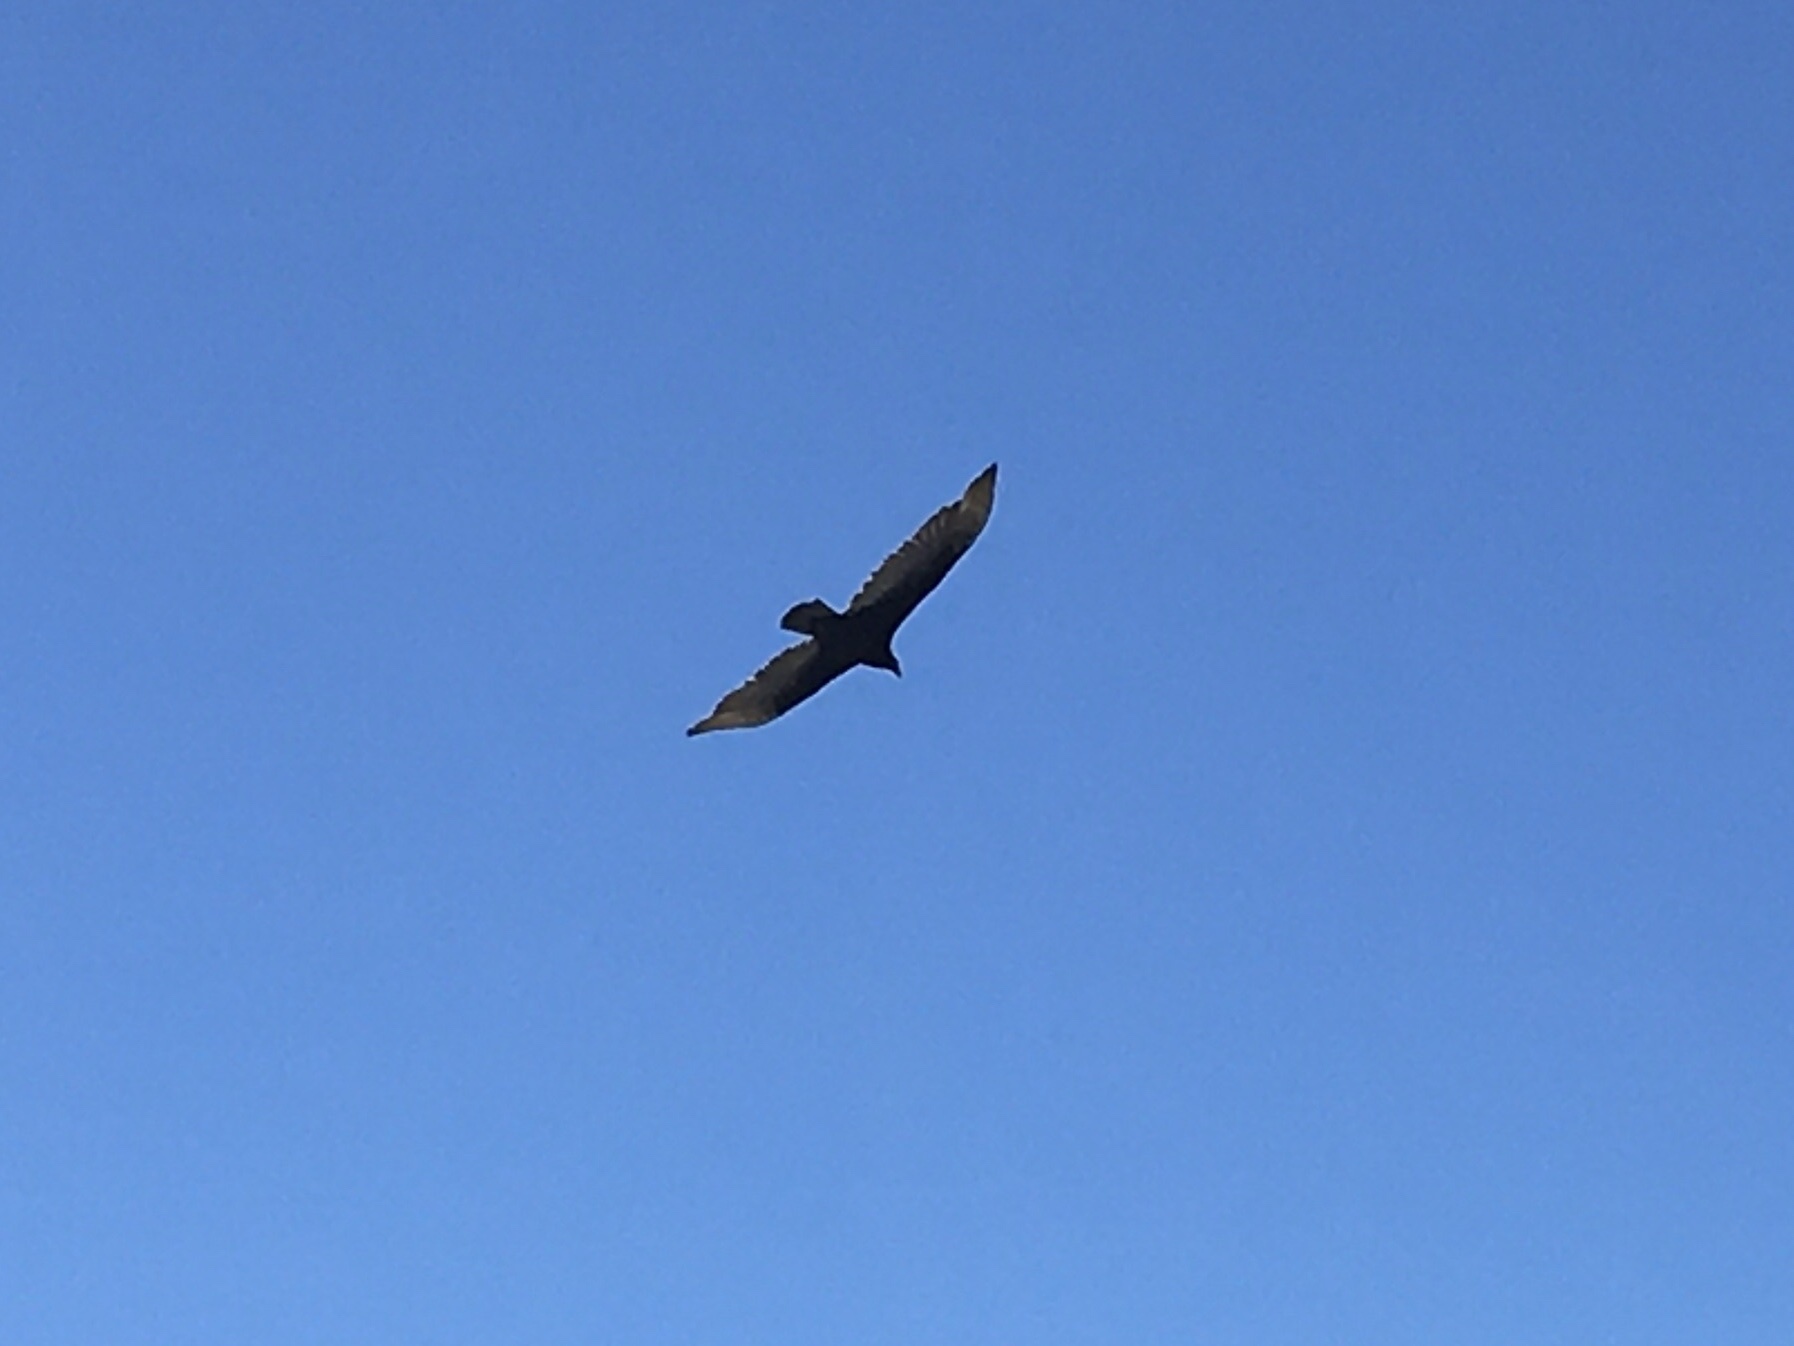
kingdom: Animalia
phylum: Chordata
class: Aves
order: Accipitriformes
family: Cathartidae
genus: Cathartes
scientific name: Cathartes aura
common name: Turkey vulture
